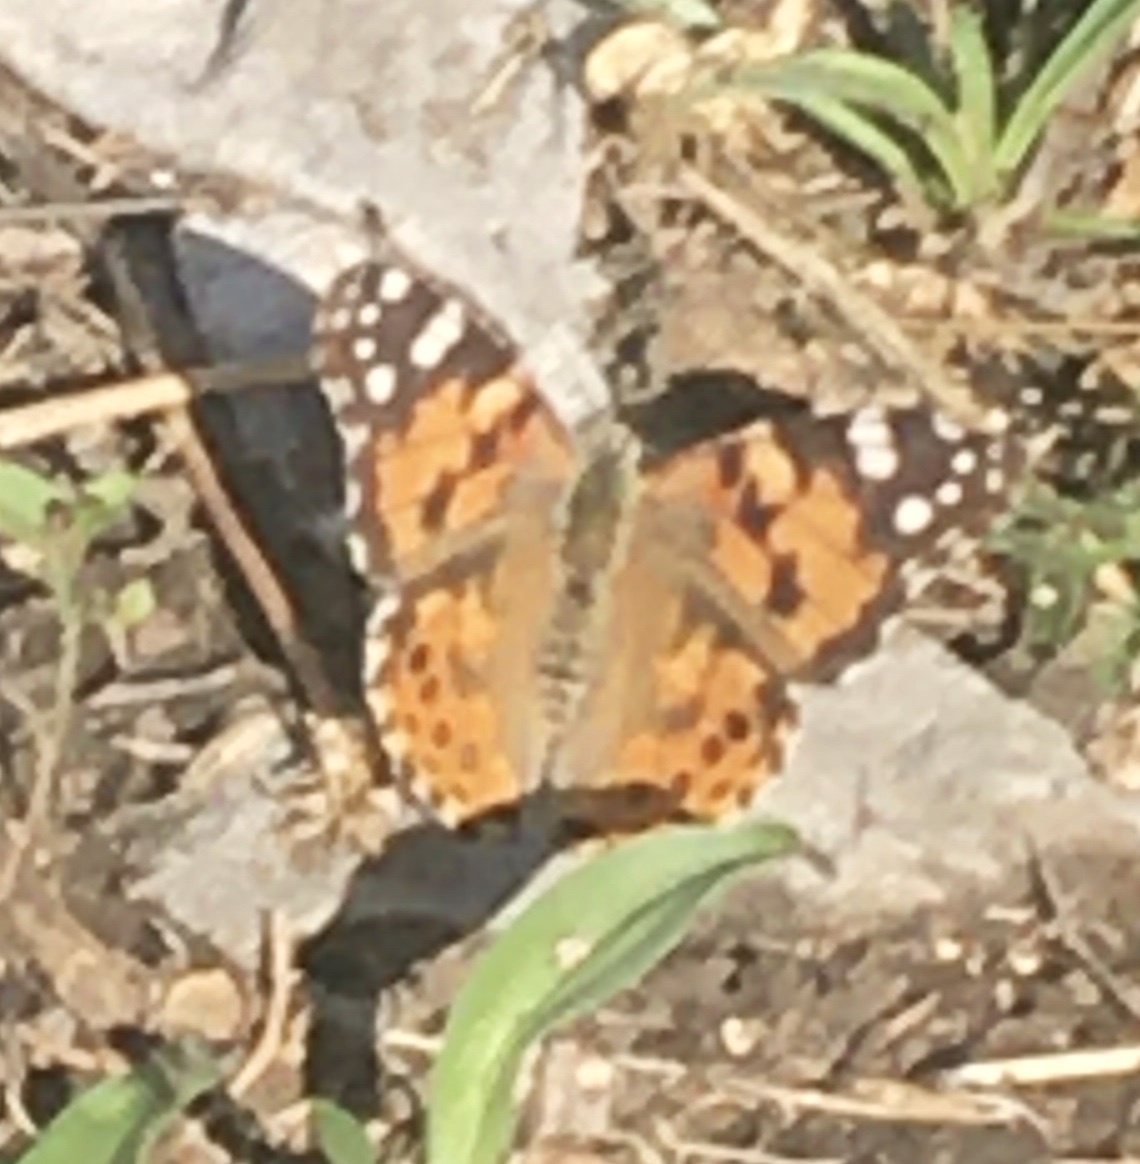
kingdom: Animalia
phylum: Arthropoda
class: Insecta
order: Lepidoptera
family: Nymphalidae
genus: Vanessa
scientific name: Vanessa cardui
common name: Painted lady
